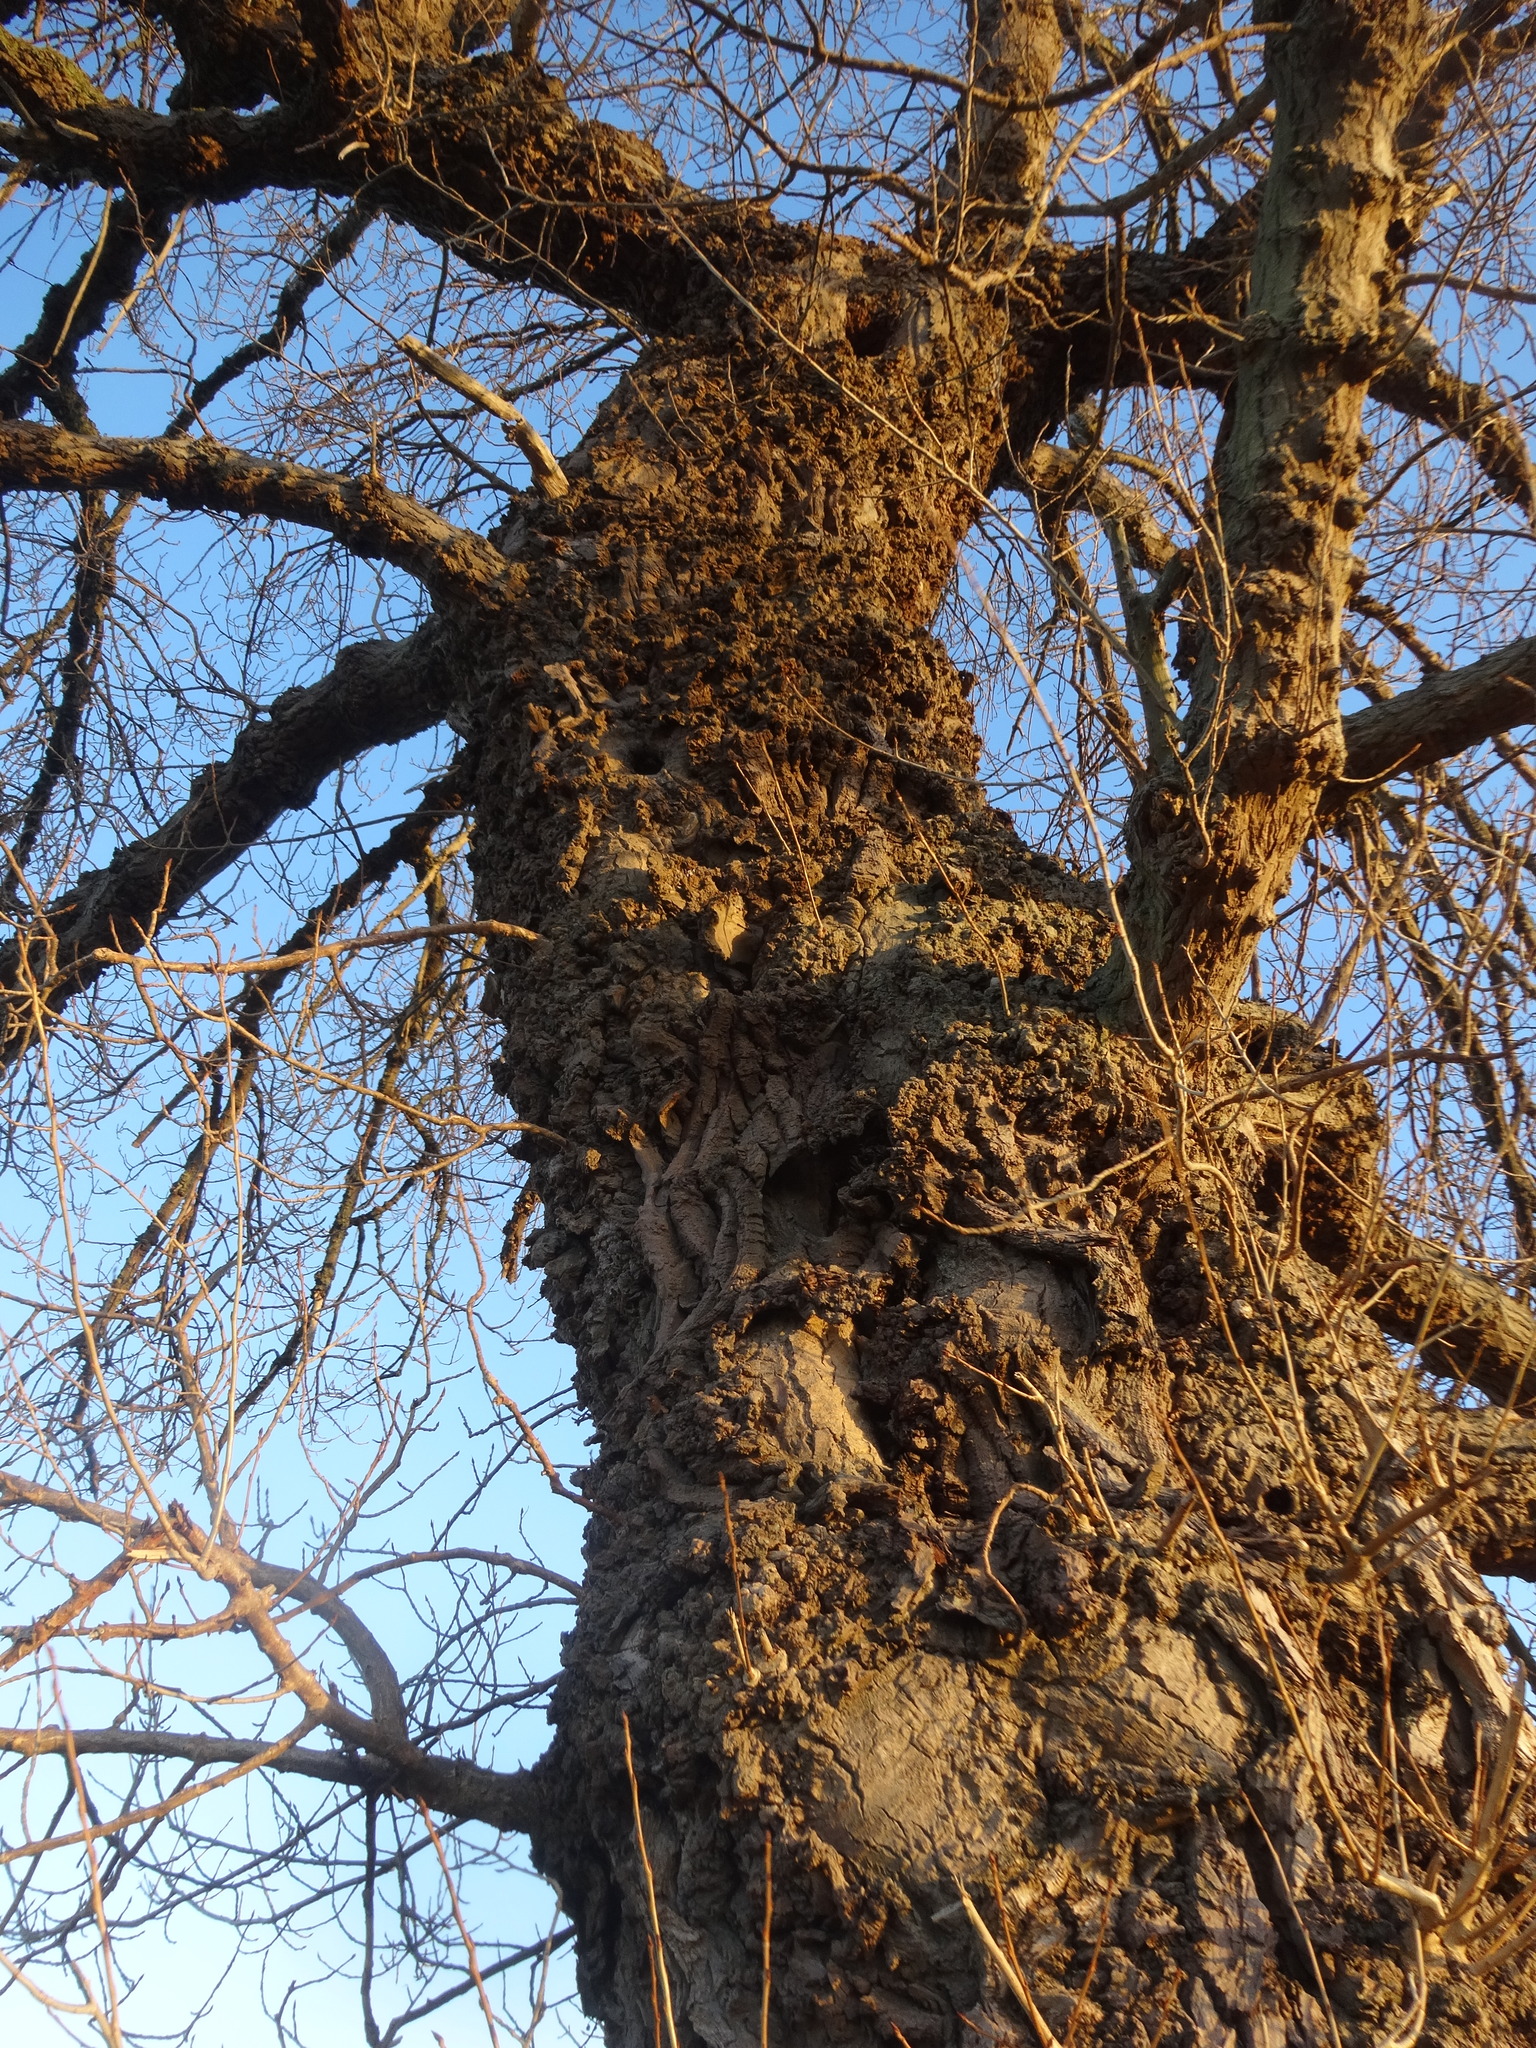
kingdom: Plantae
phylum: Tracheophyta
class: Magnoliopsida
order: Malpighiales
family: Salicaceae
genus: Populus
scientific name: Populus nigra
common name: Black poplar
